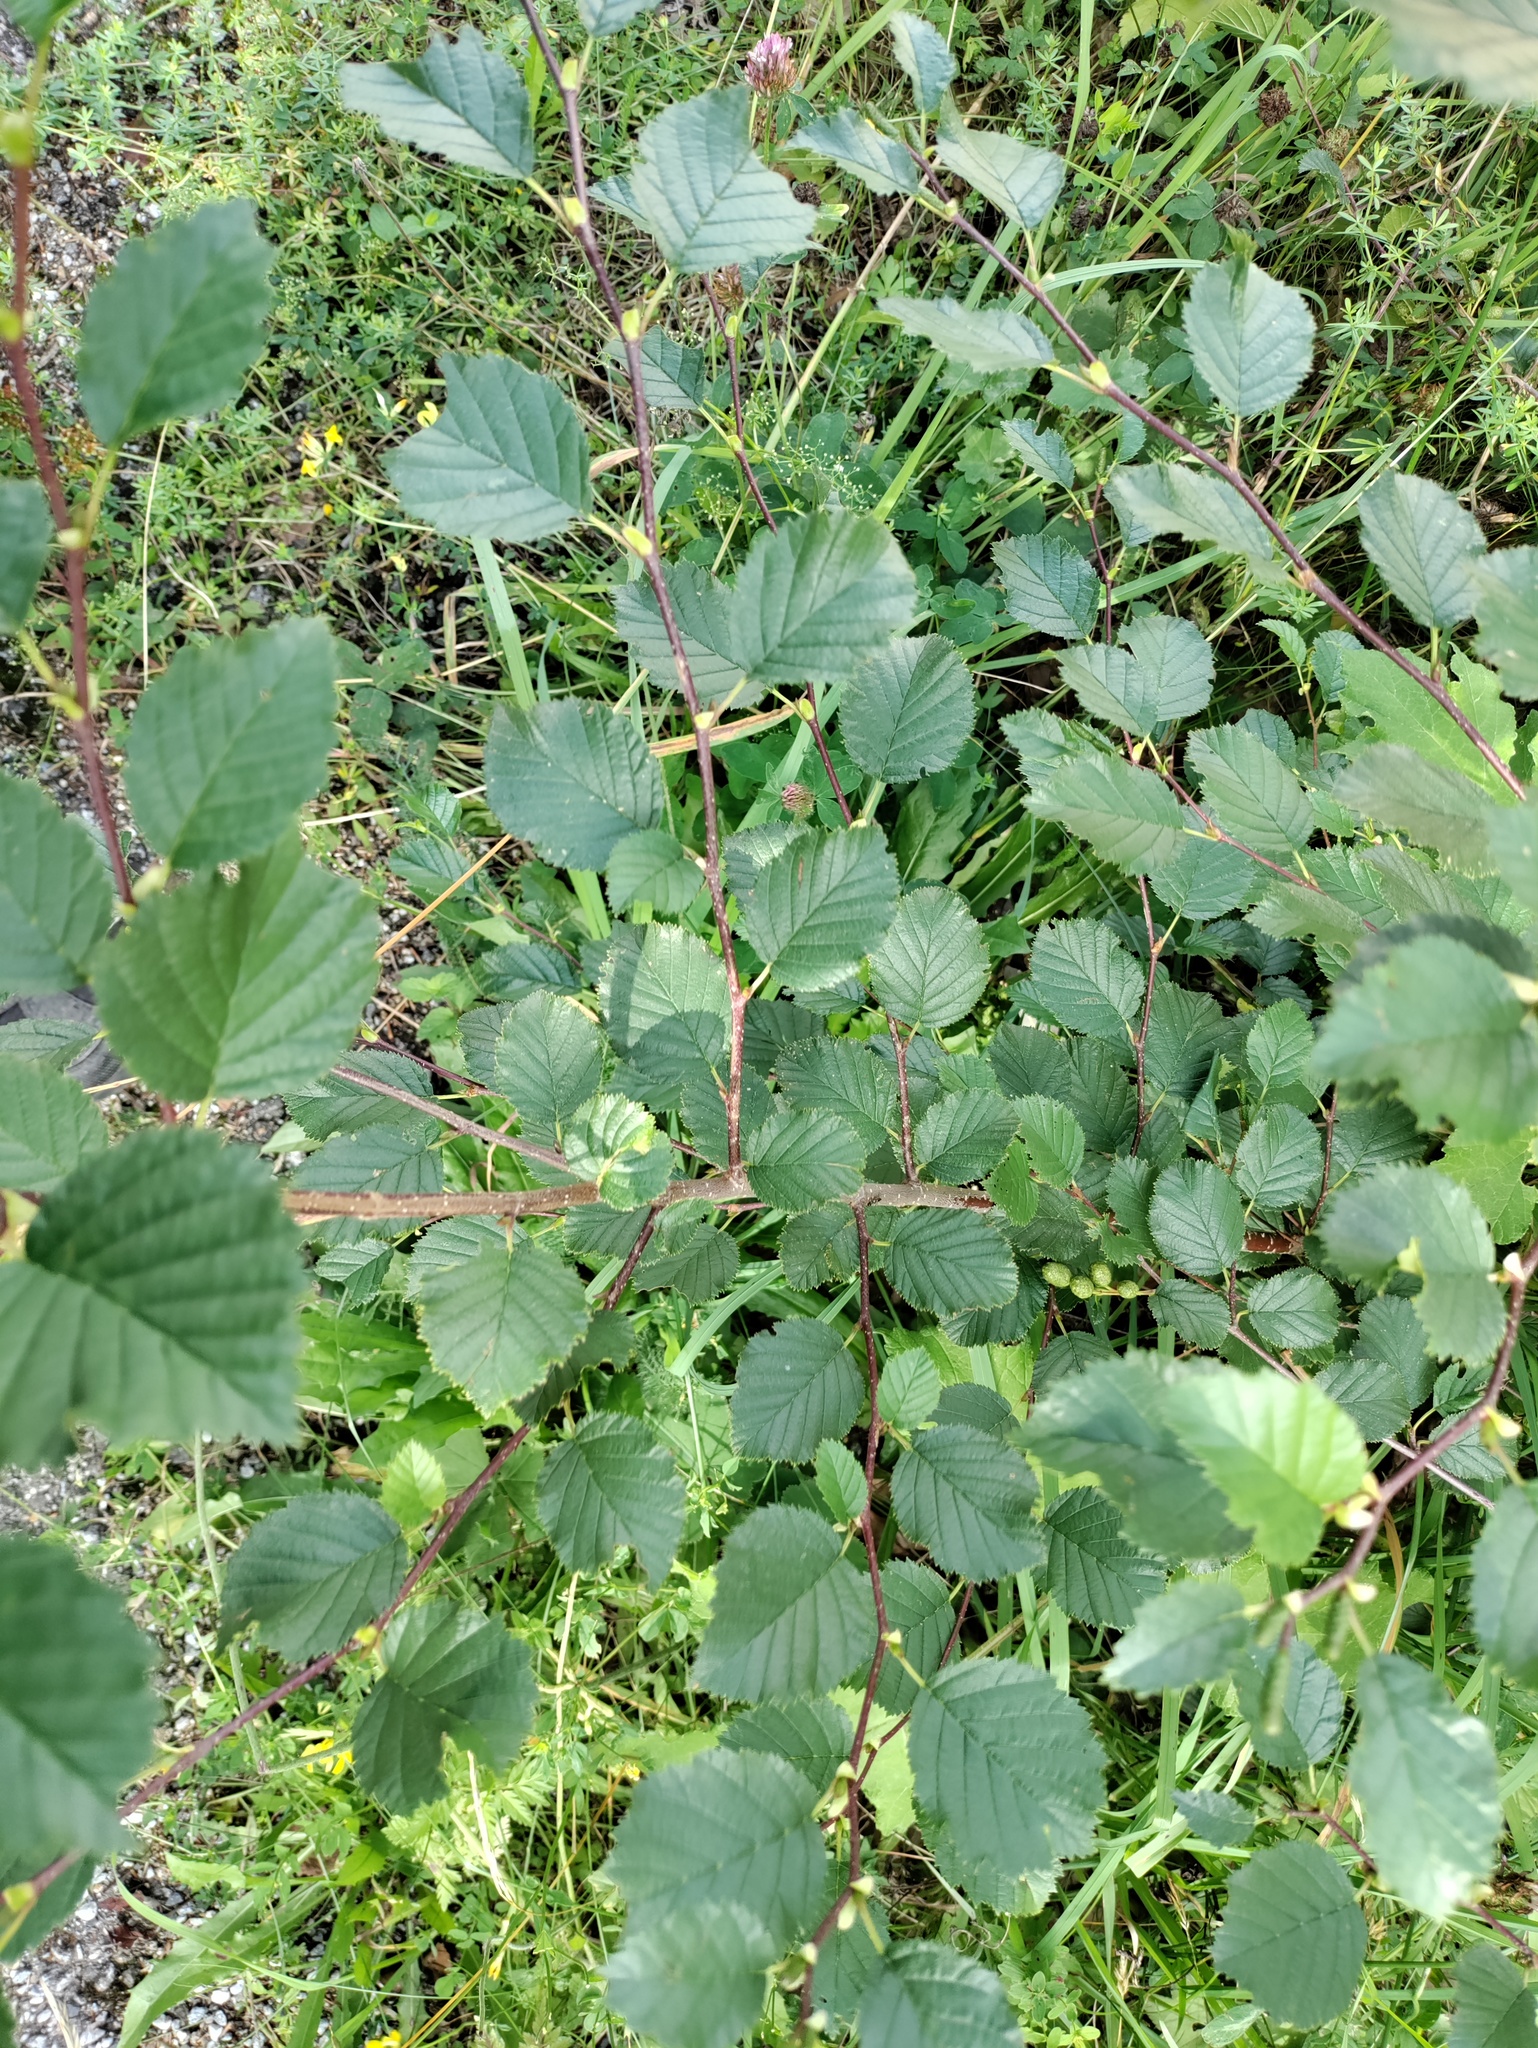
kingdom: Plantae
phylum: Tracheophyta
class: Magnoliopsida
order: Fagales
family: Betulaceae
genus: Alnus
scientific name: Alnus alnobetula
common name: Green alder
